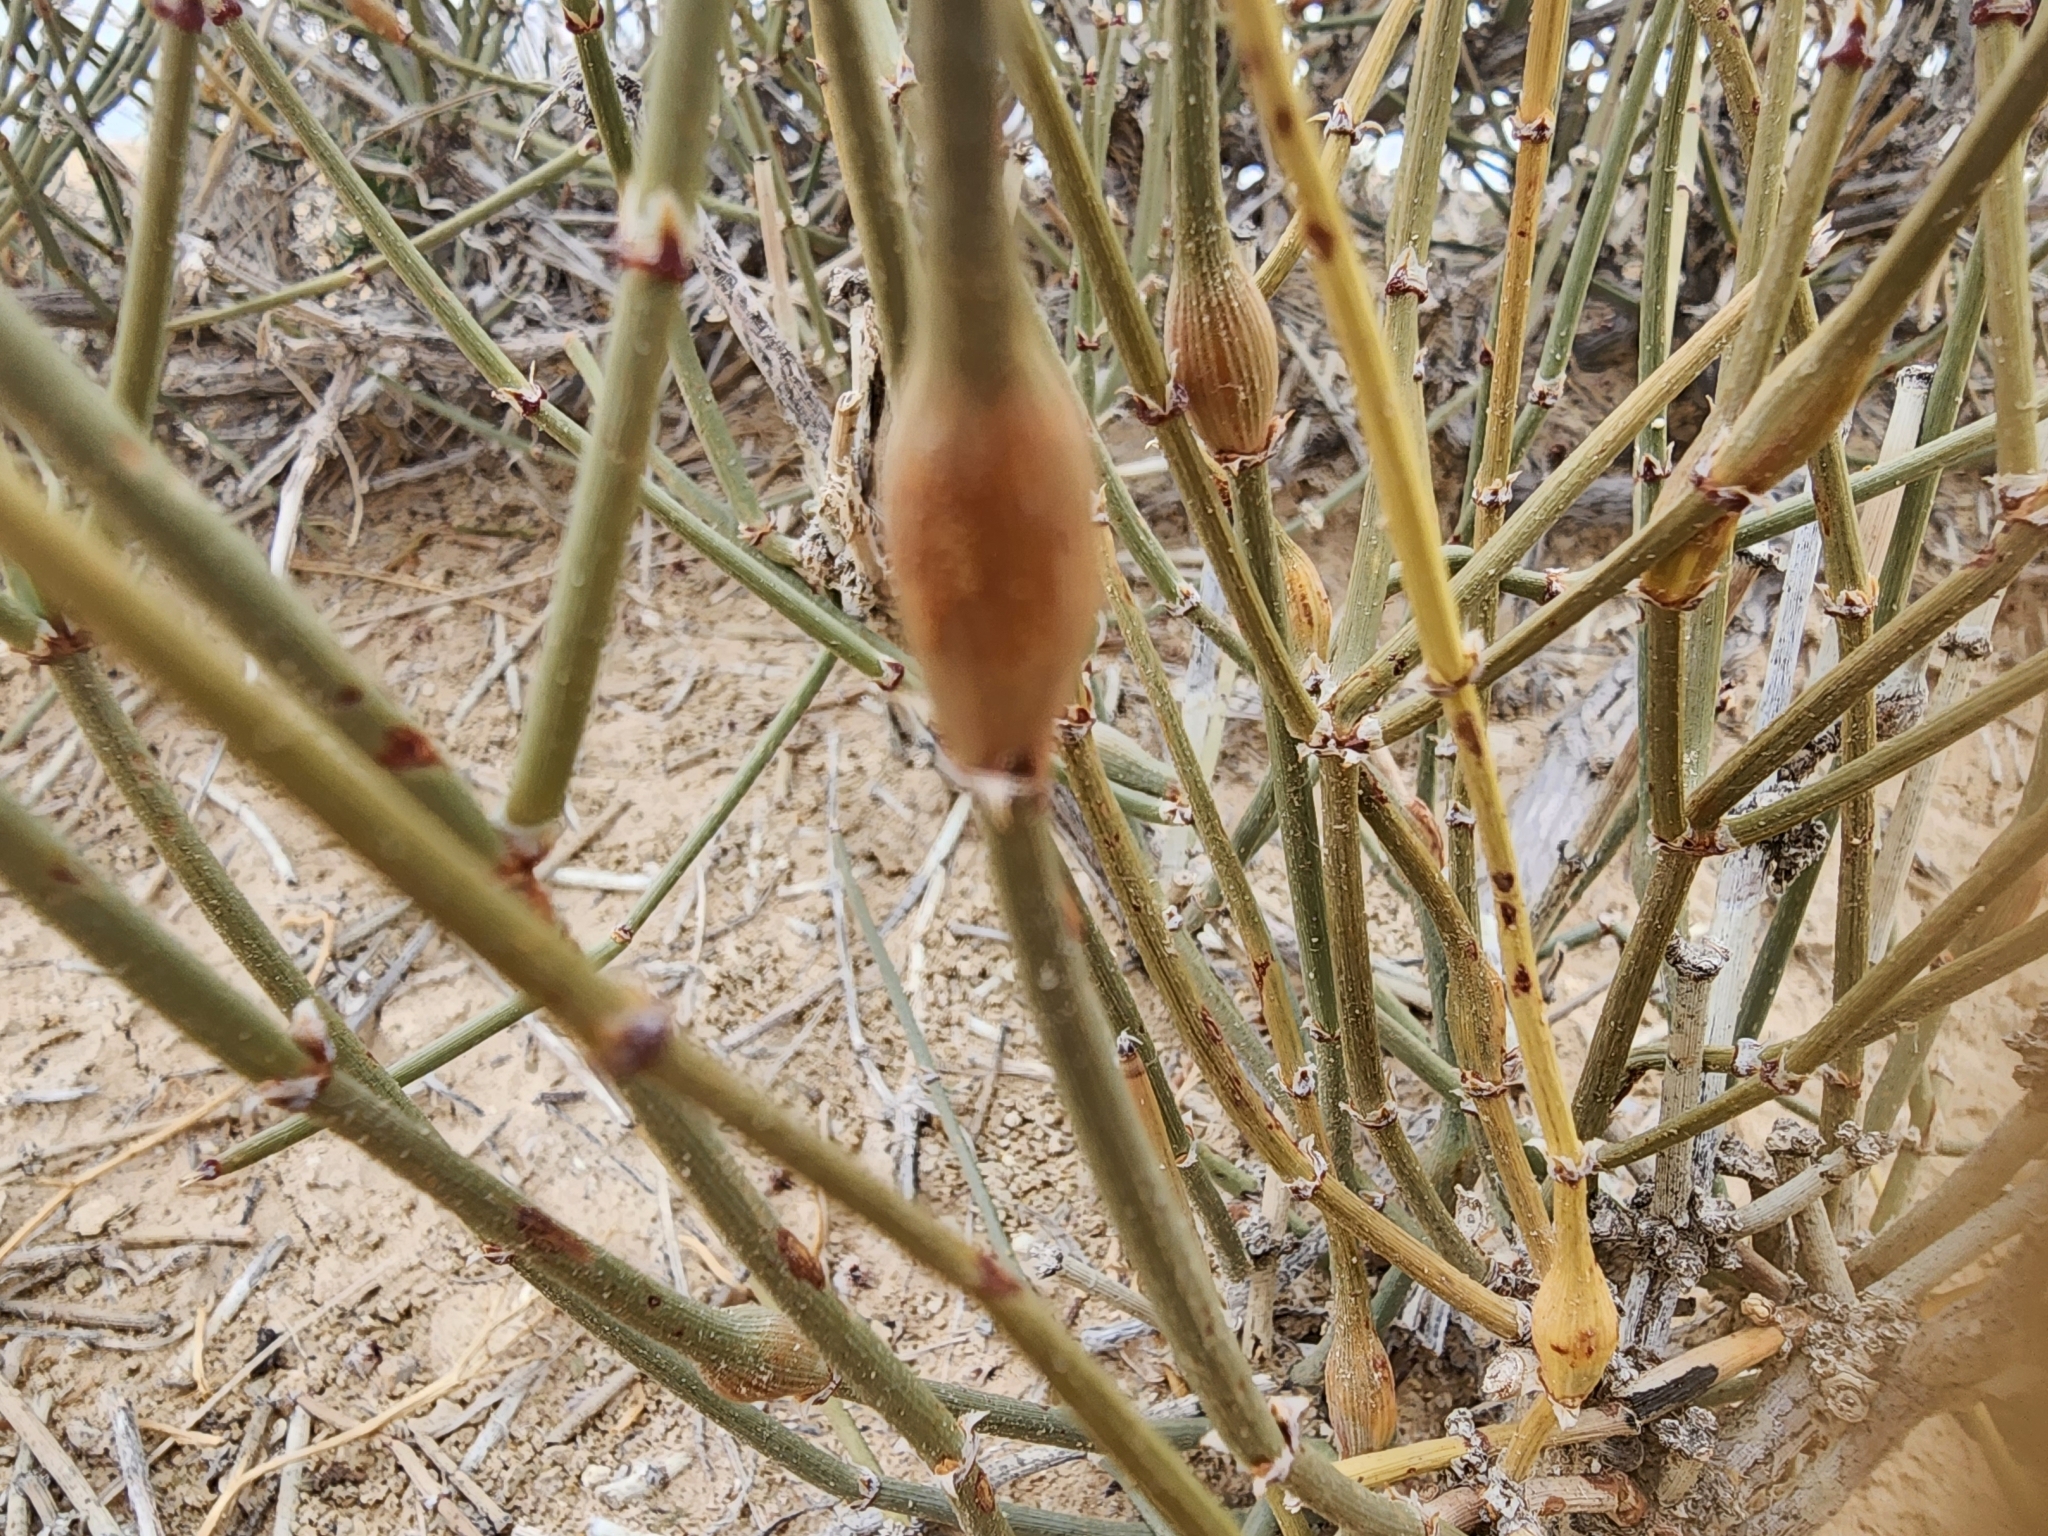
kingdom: Animalia
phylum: Arthropoda
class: Insecta
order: Diptera
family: Cecidomyiidae
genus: Lasioptera
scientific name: Lasioptera ephedrae
